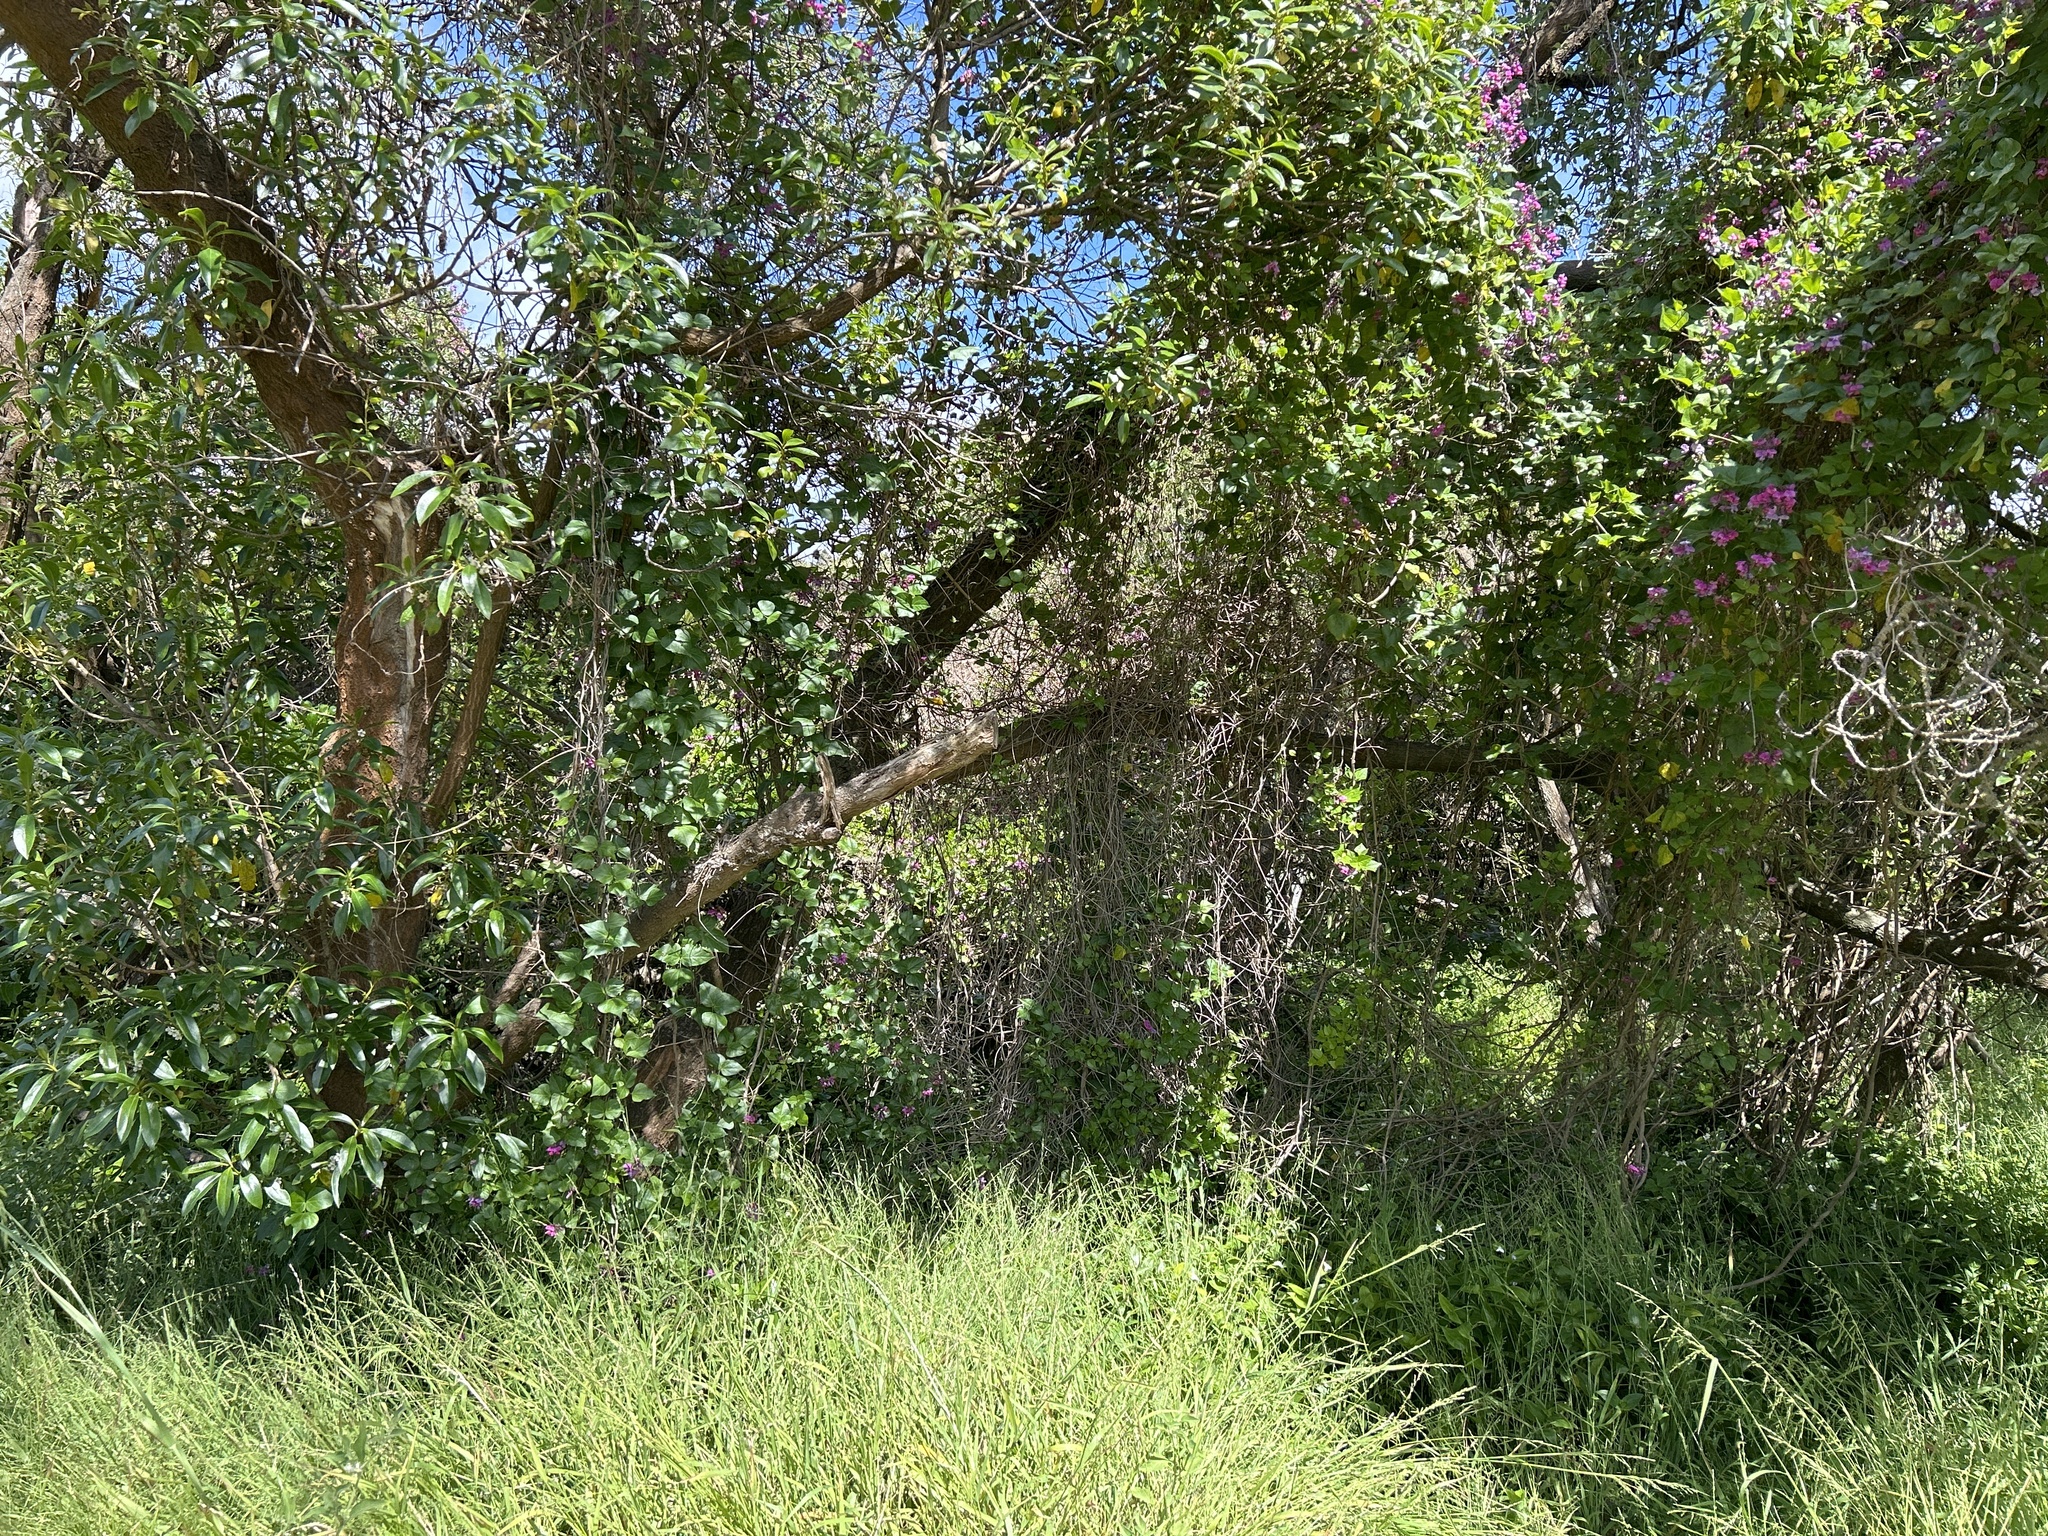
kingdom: Plantae
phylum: Tracheophyta
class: Magnoliopsida
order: Fabales
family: Fabaceae
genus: Dipogon
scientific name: Dipogon lignosus
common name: Okie bean
